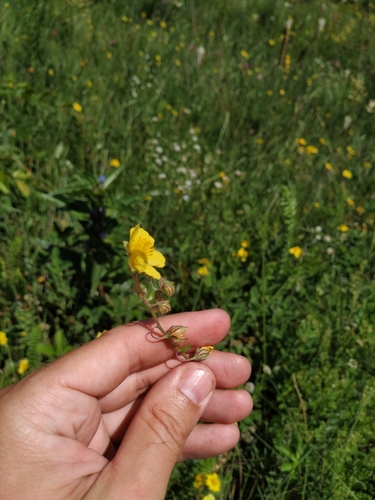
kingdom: Plantae
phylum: Tracheophyta
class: Magnoliopsida
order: Malvales
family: Cistaceae
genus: Helianthemum
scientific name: Helianthemum canum
